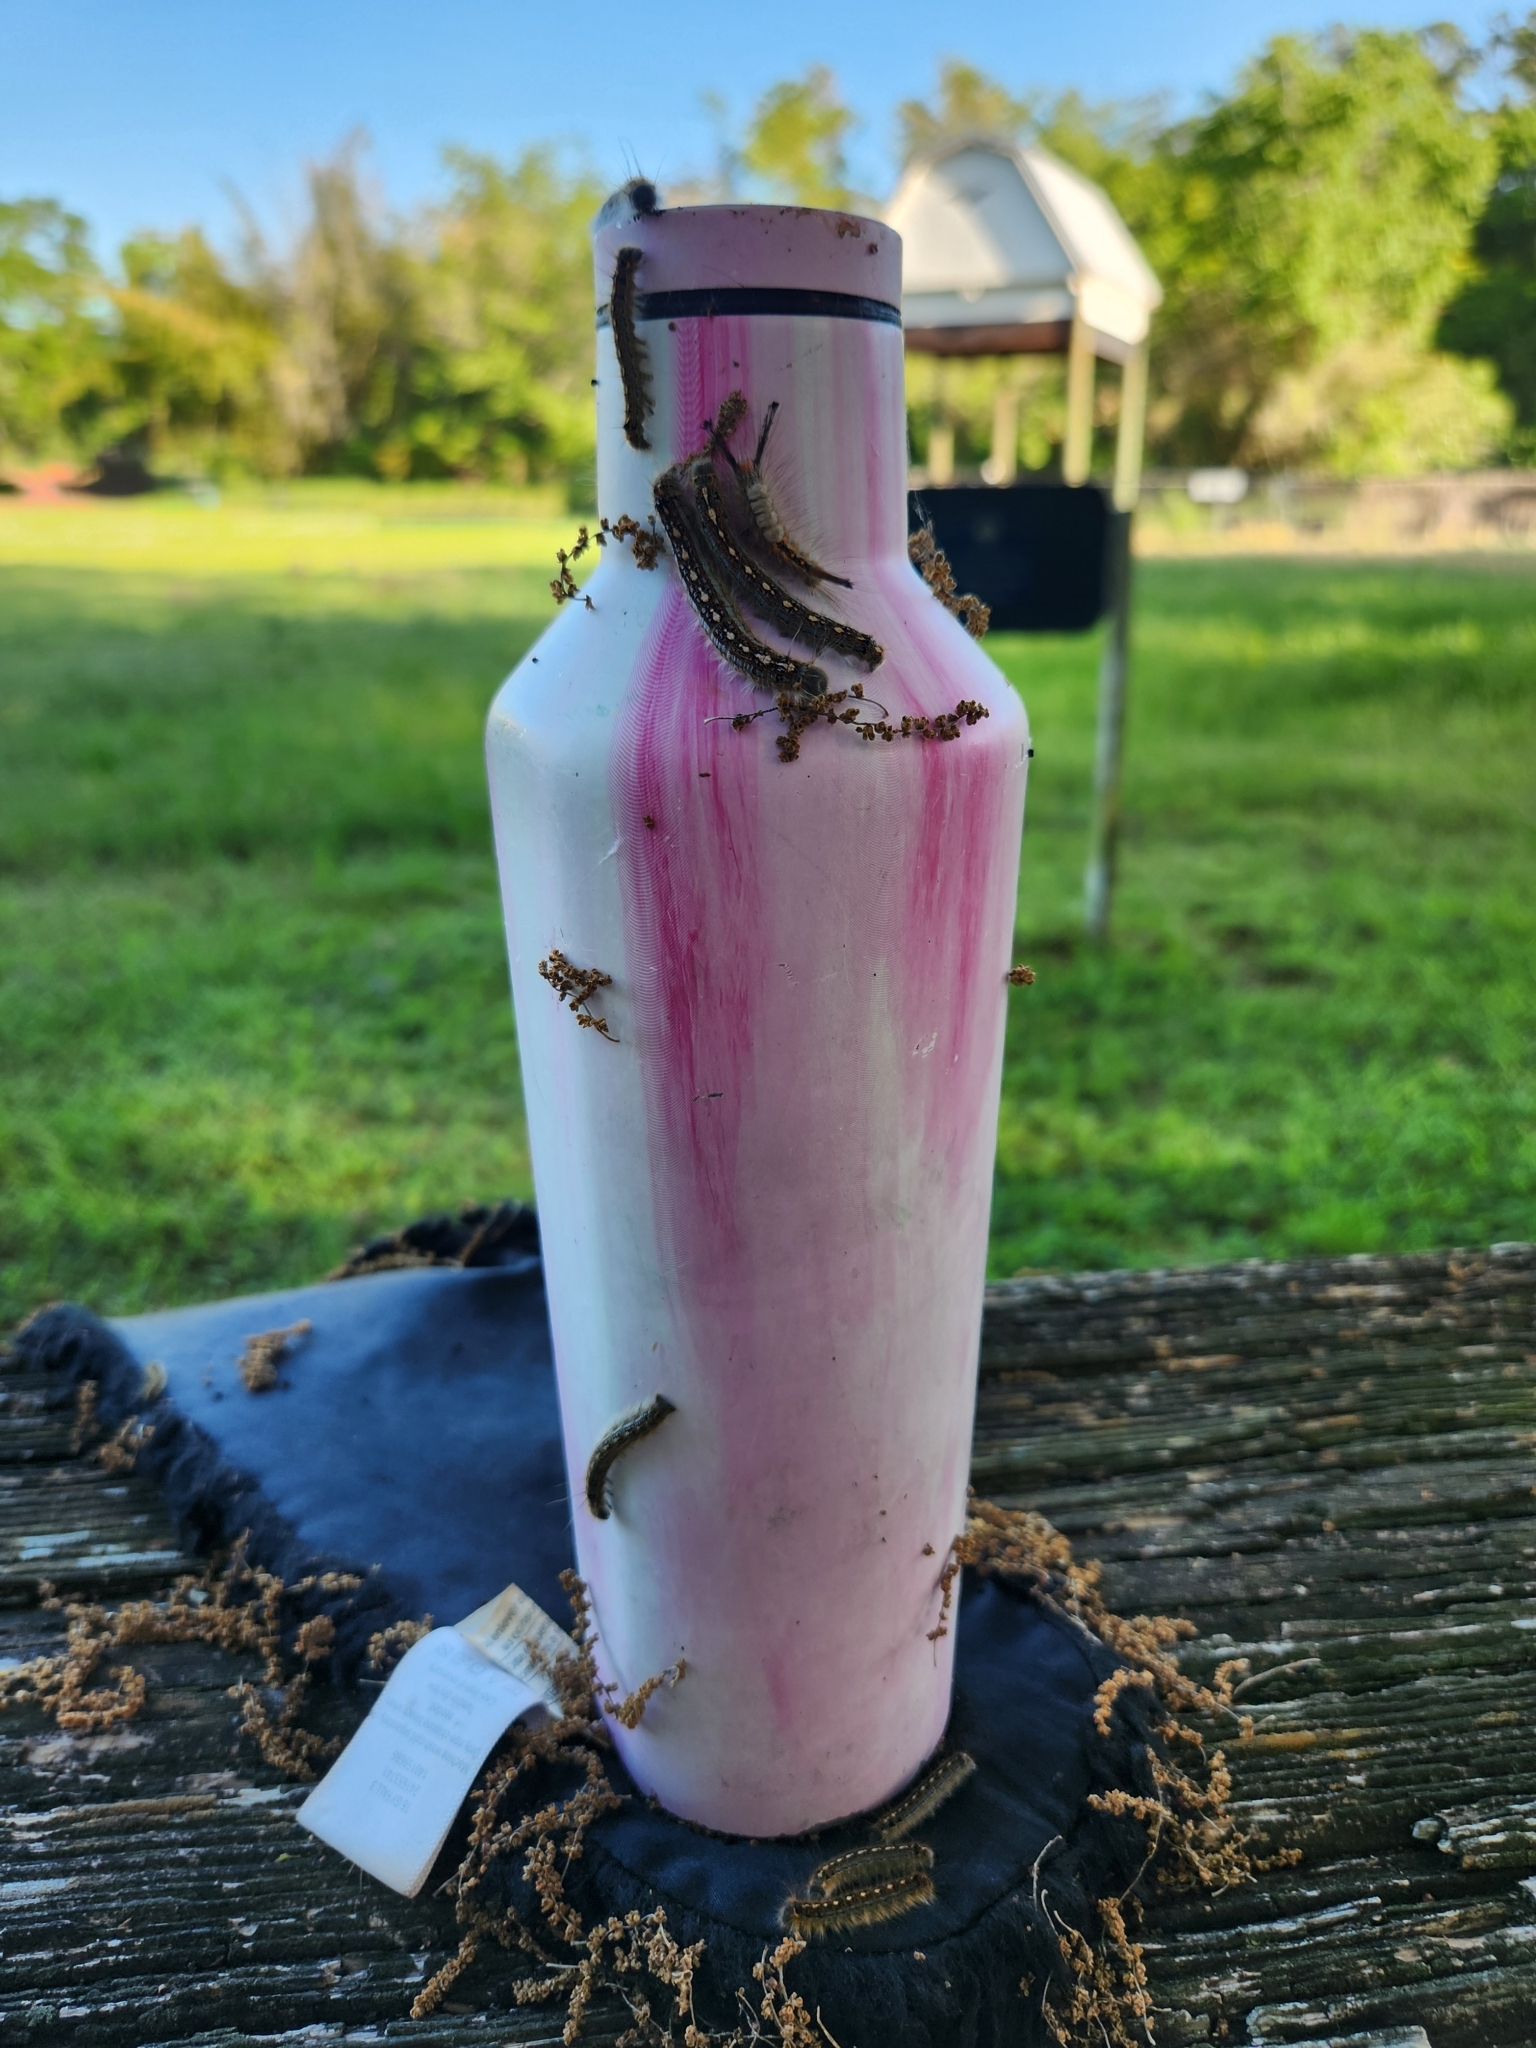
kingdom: Animalia
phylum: Arthropoda
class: Insecta
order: Lepidoptera
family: Lasiocampidae
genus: Malacosoma
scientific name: Malacosoma disstria
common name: Forest tent caterpillar
